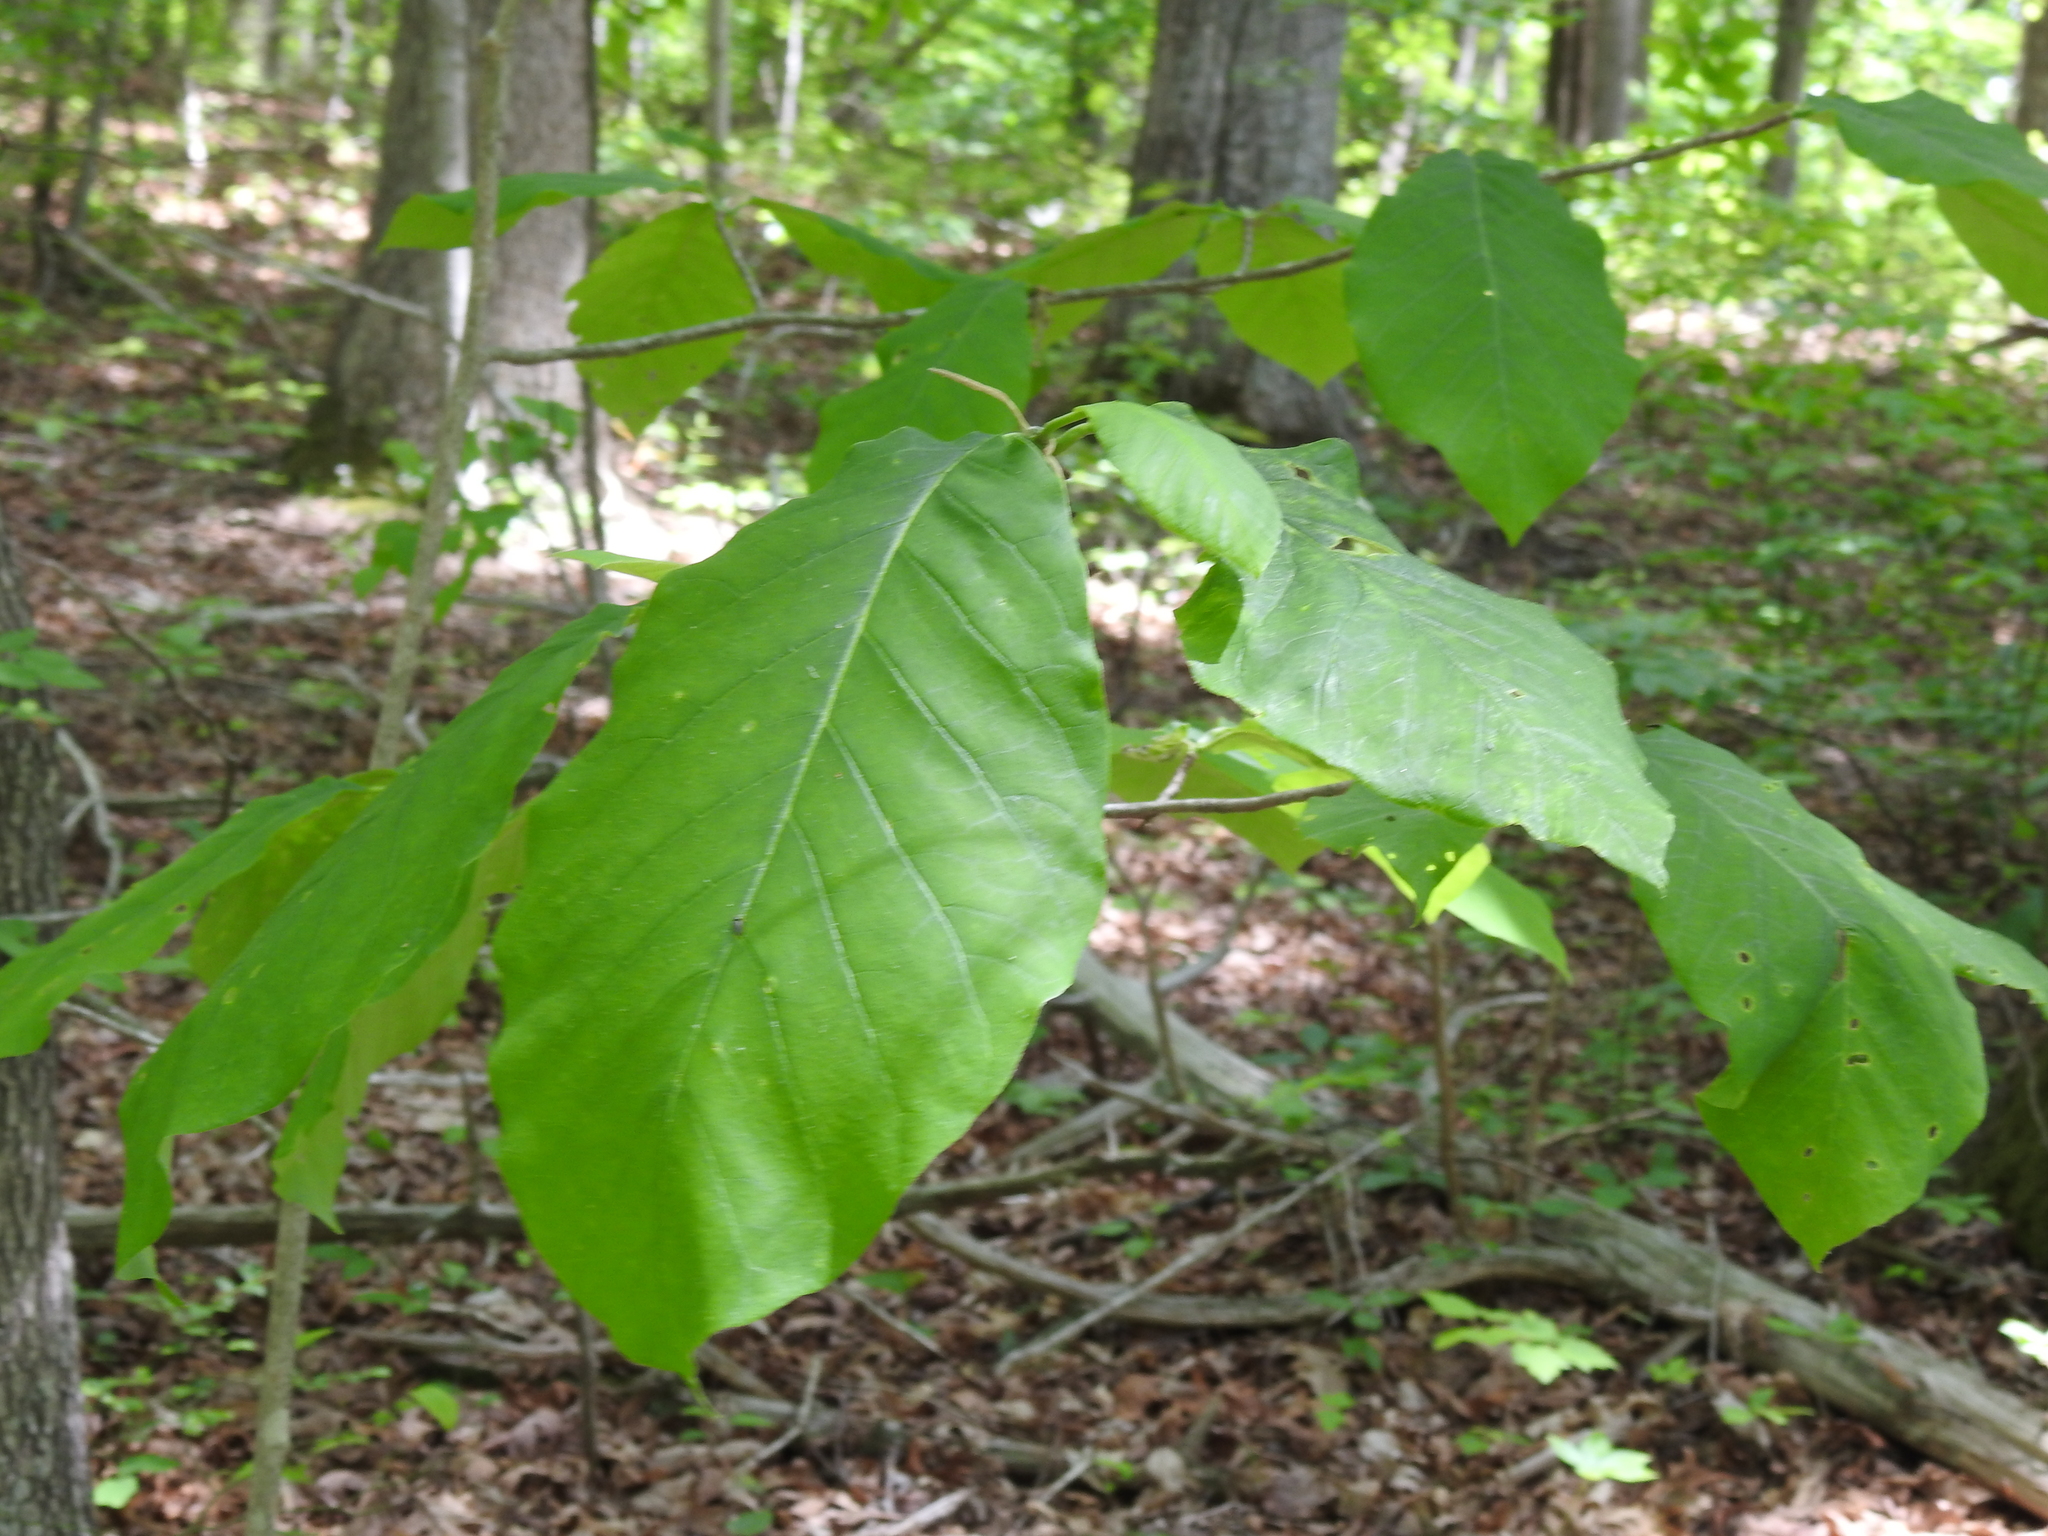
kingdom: Plantae
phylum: Tracheophyta
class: Magnoliopsida
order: Magnoliales
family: Annonaceae
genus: Asimina
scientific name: Asimina triloba
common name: Dog-banana
